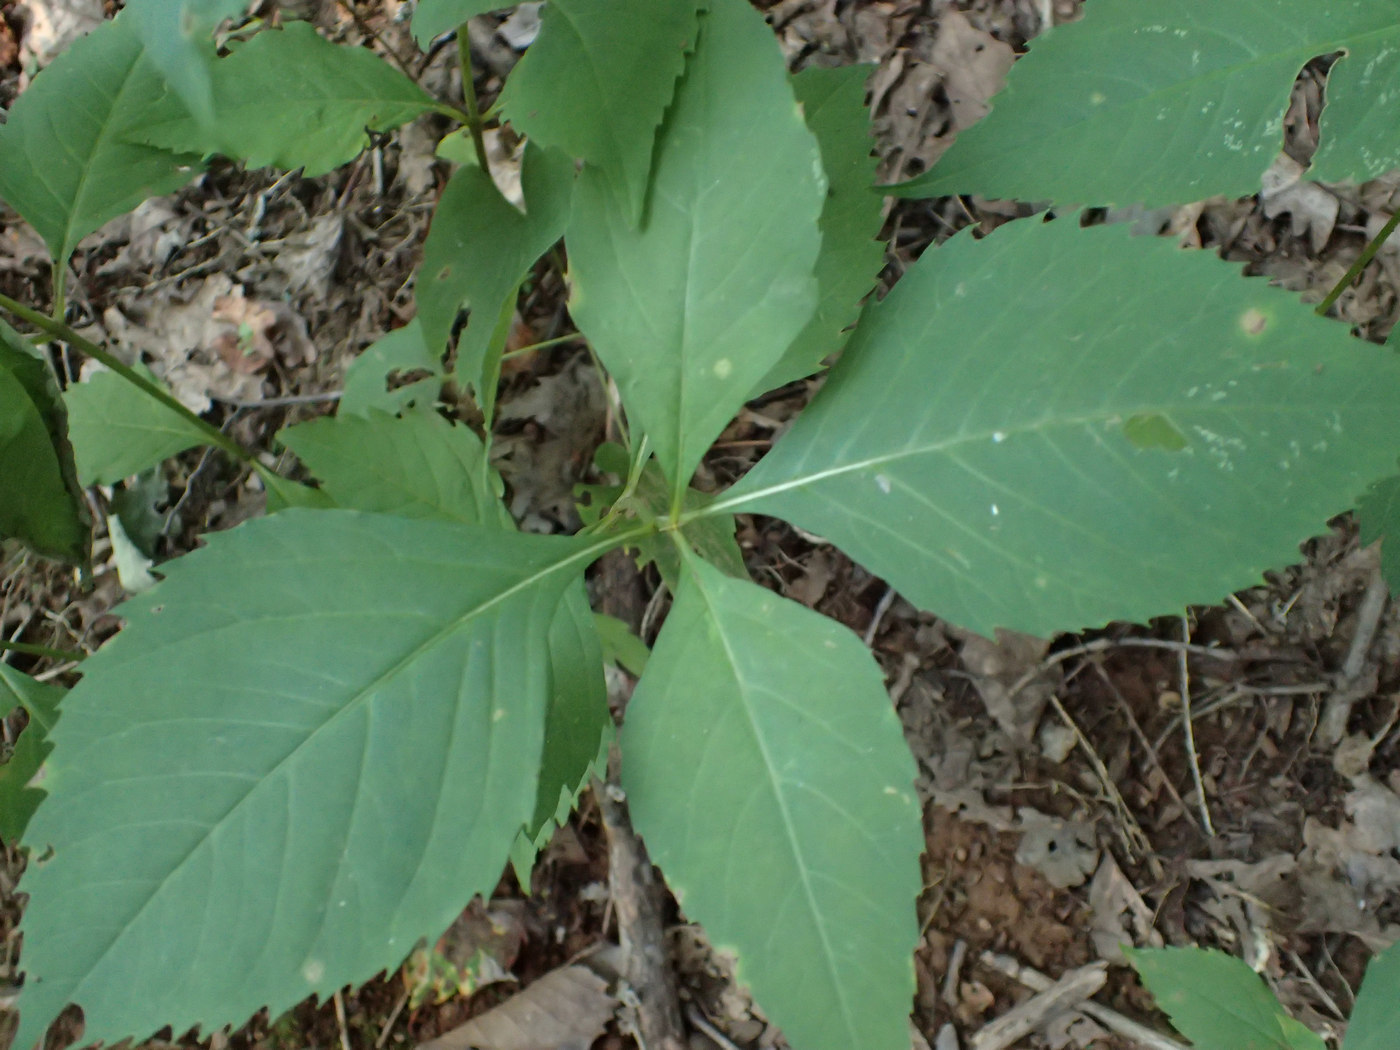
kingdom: Plantae
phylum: Tracheophyta
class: Magnoliopsida
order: Asterales
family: Asteraceae
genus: Coreopsis
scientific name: Coreopsis latifolia
